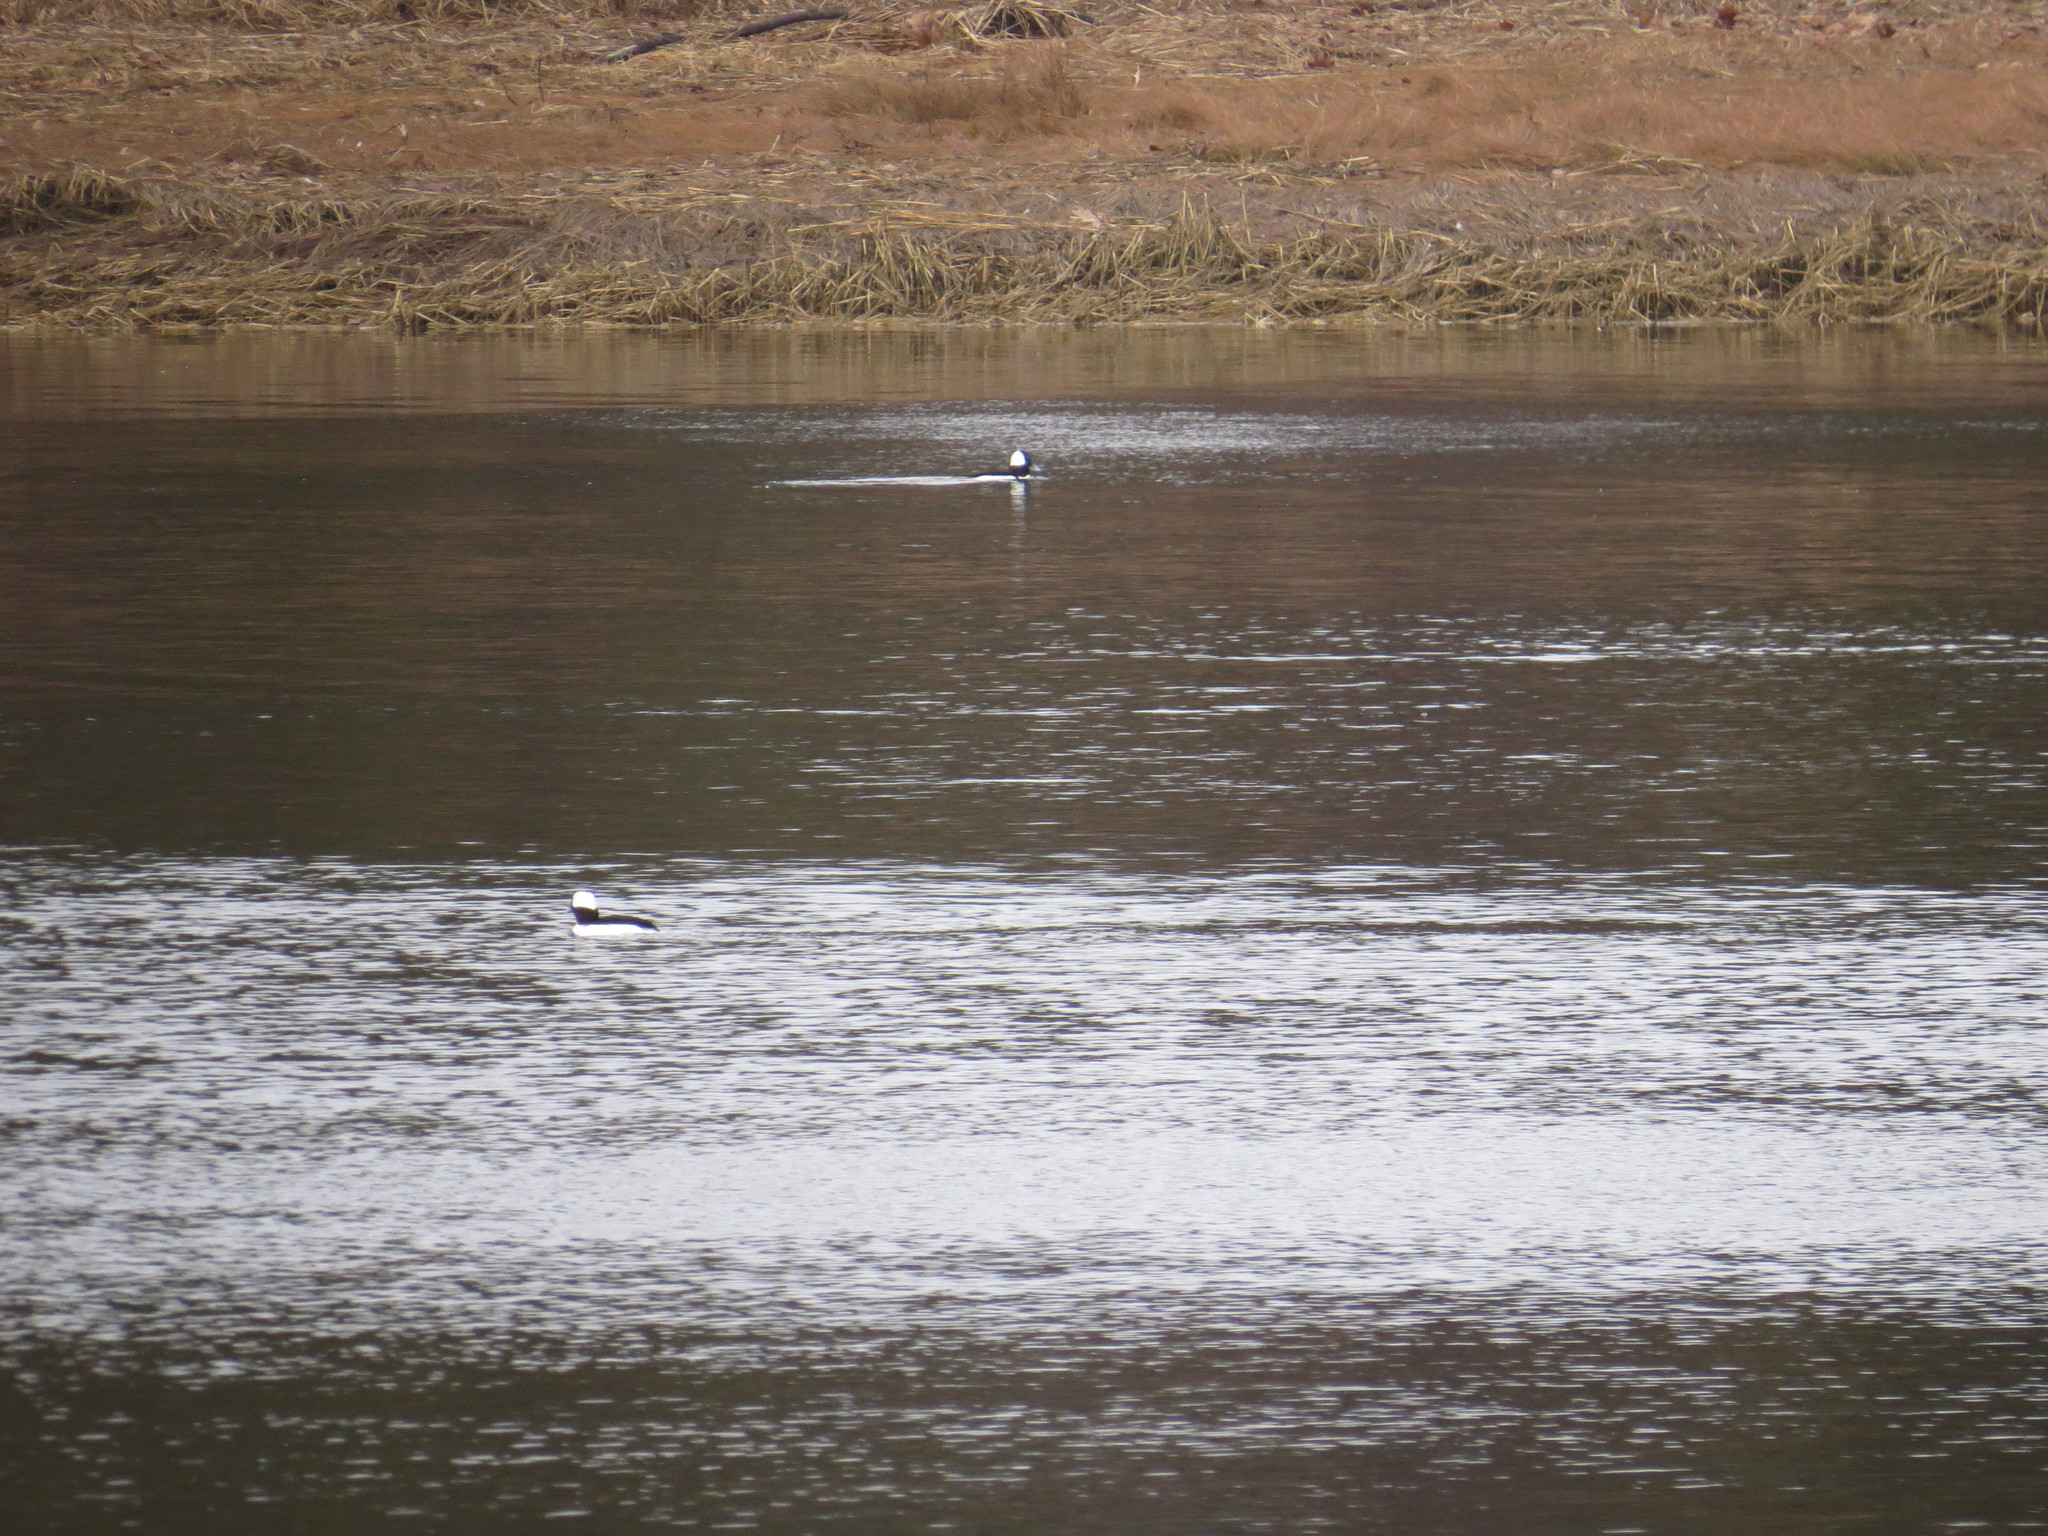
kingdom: Animalia
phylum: Chordata
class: Aves
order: Anseriformes
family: Anatidae
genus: Bucephala
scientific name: Bucephala albeola
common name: Bufflehead
